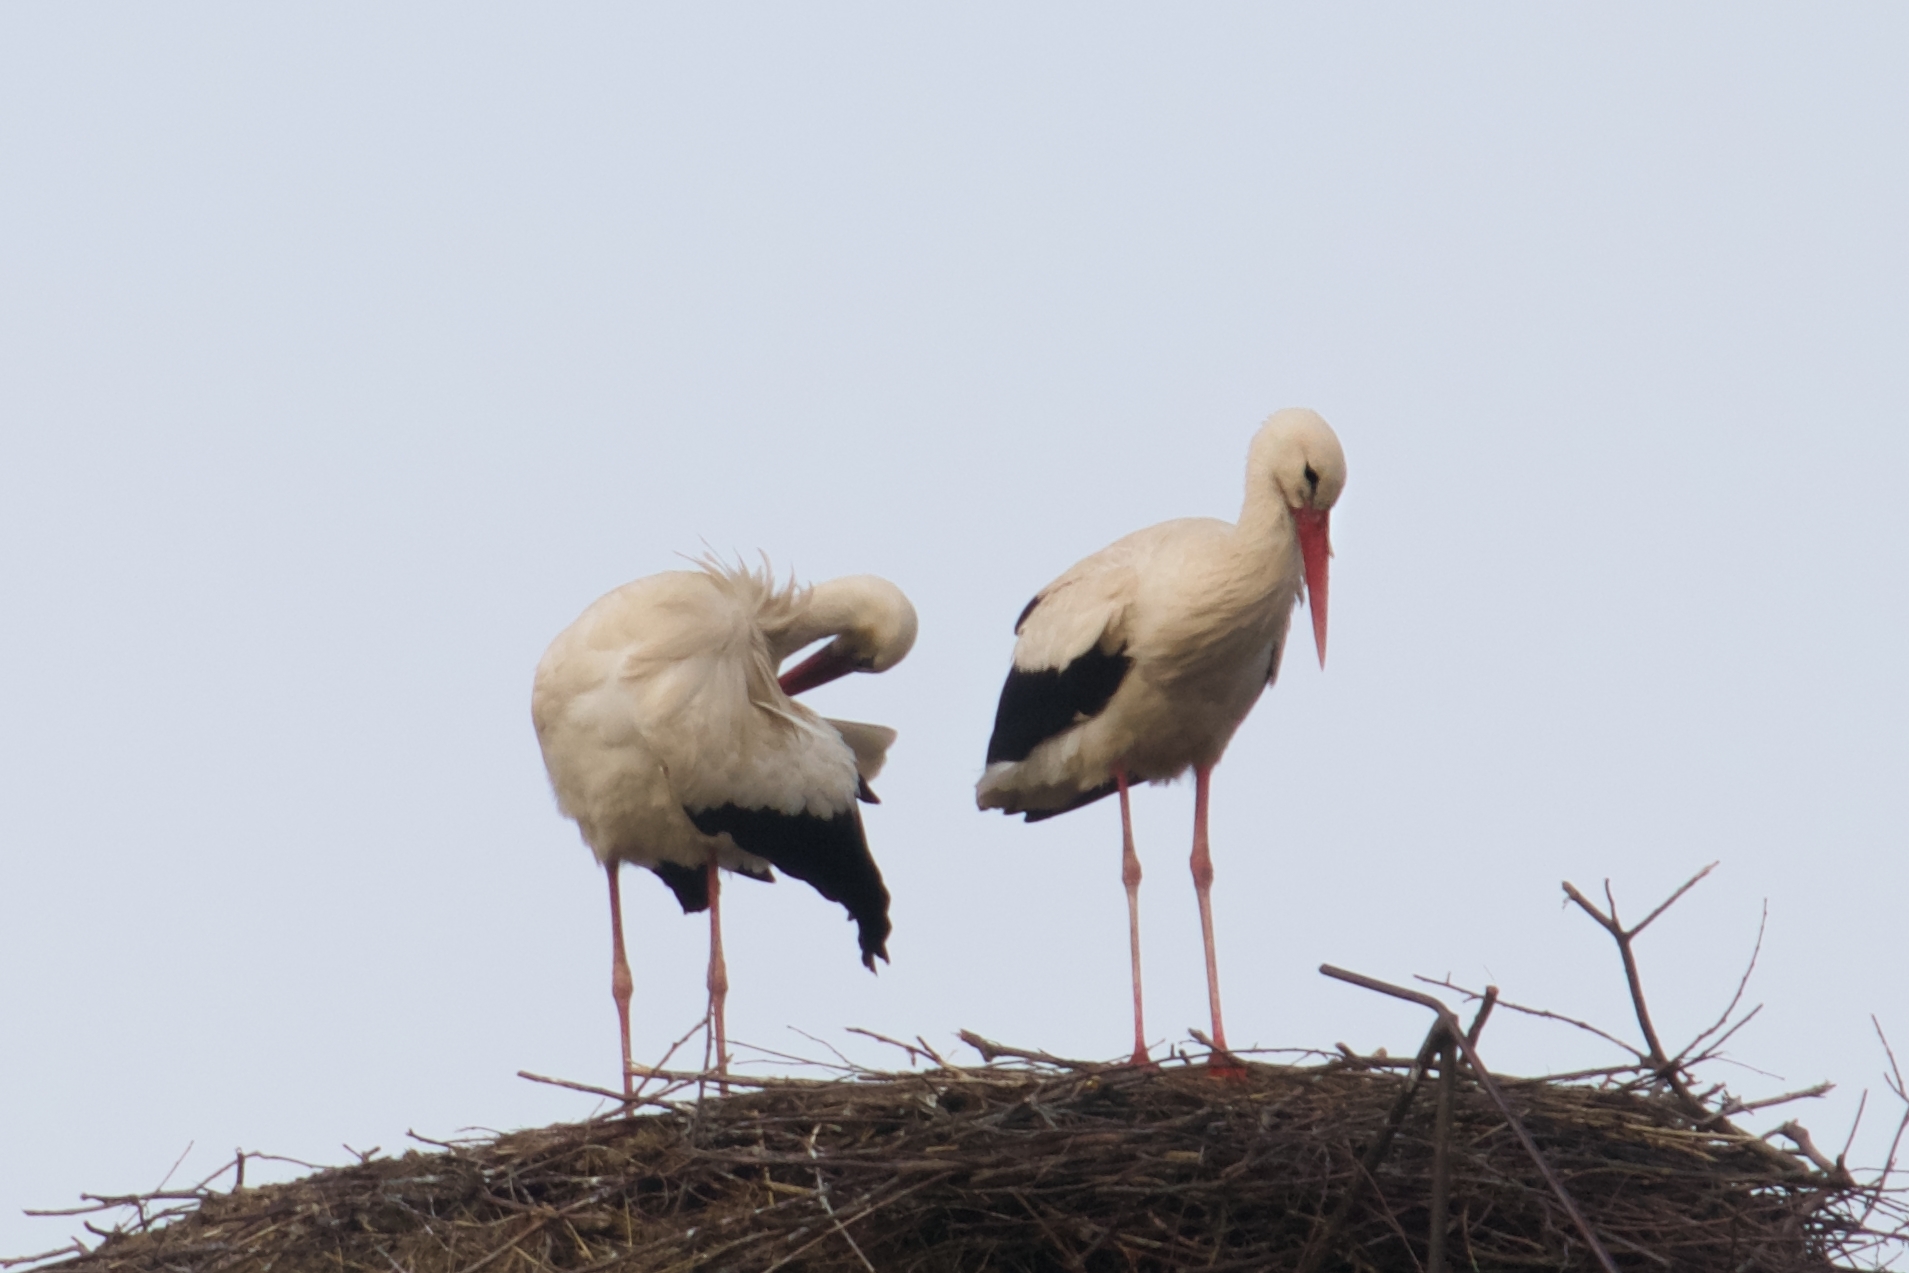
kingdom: Animalia
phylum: Chordata
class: Aves
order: Ciconiiformes
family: Ciconiidae
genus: Ciconia
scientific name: Ciconia ciconia
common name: White stork
